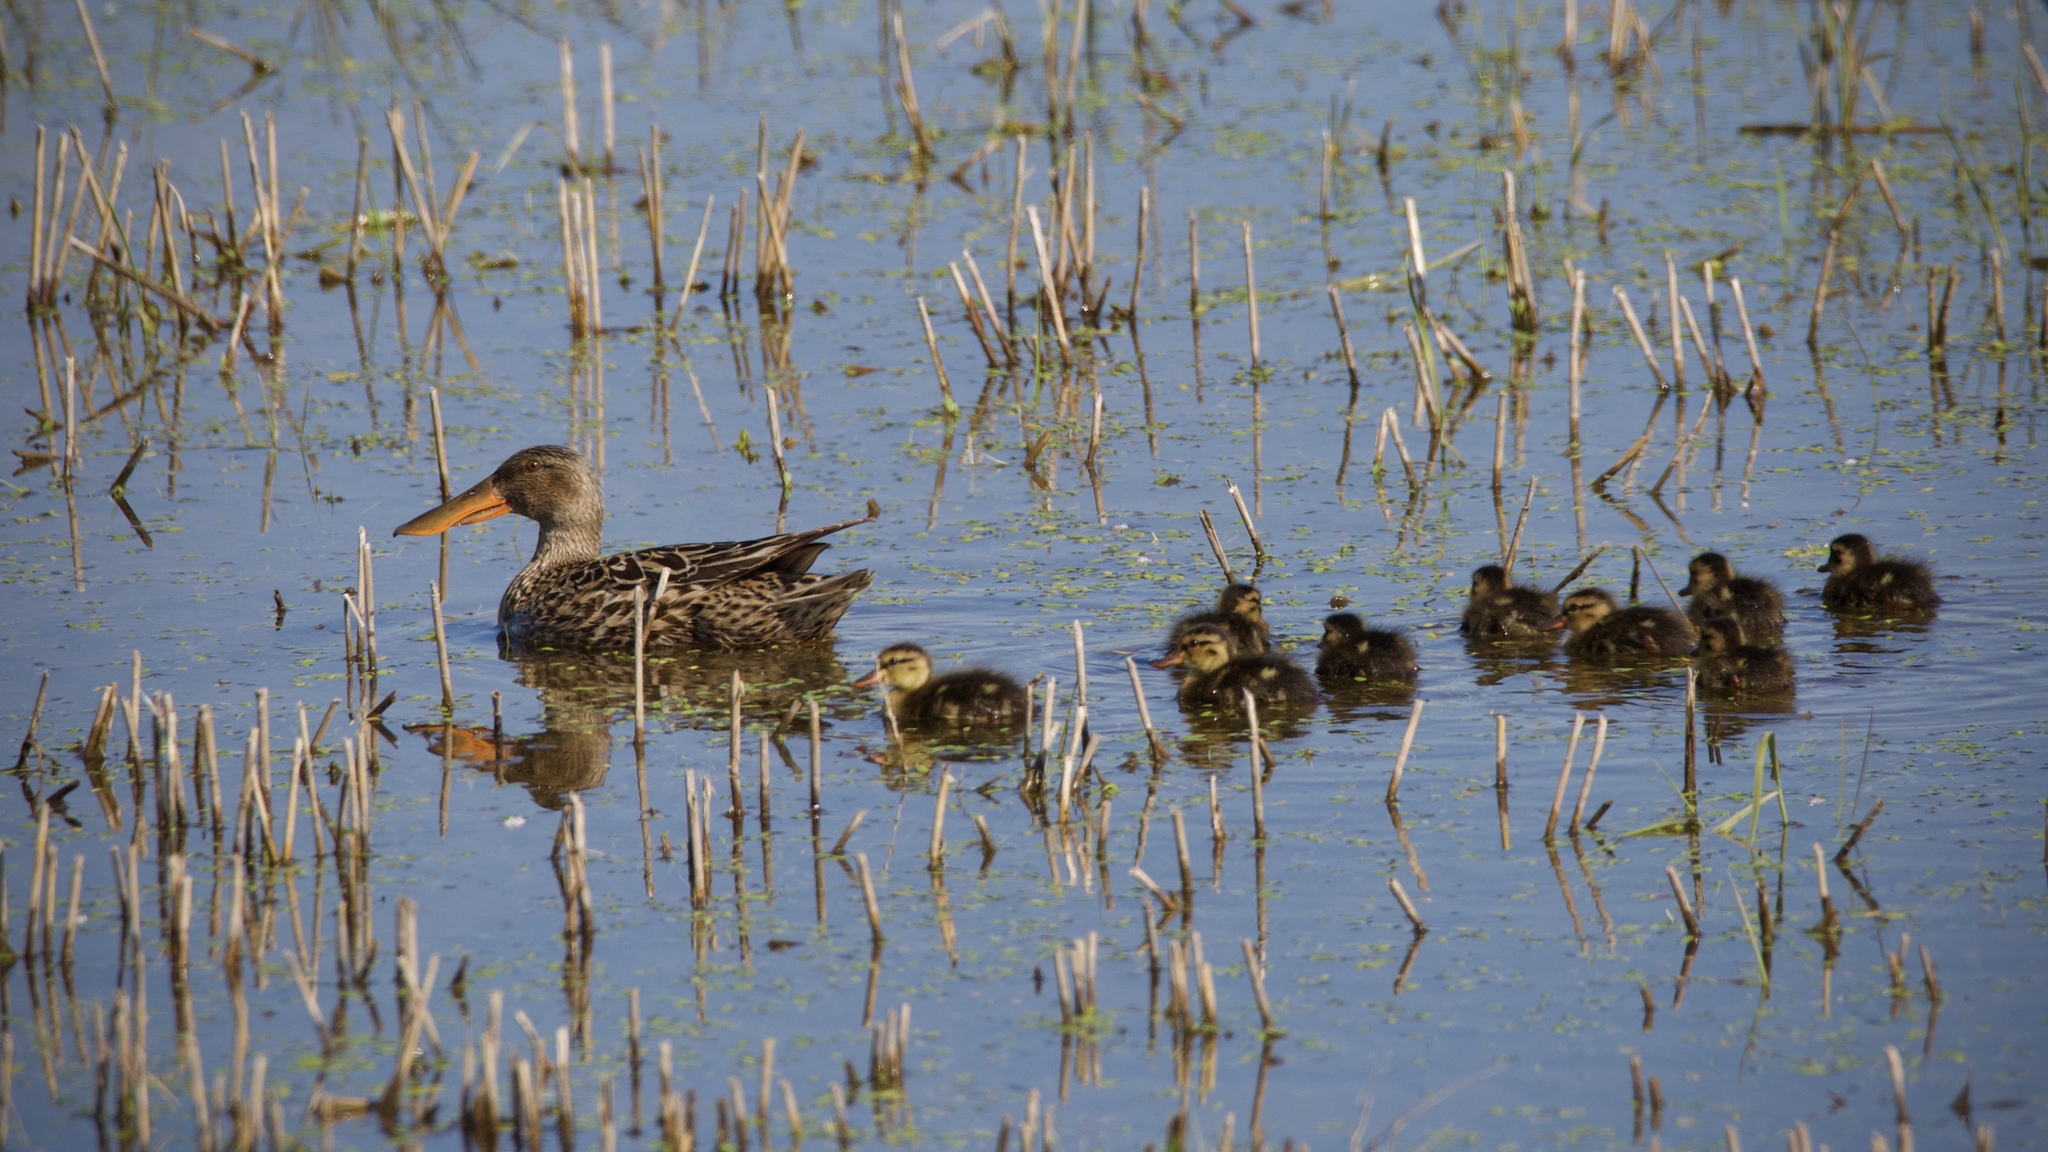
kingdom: Animalia
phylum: Chordata
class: Aves
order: Anseriformes
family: Anatidae
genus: Spatula
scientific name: Spatula clypeata
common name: Northern shoveler
